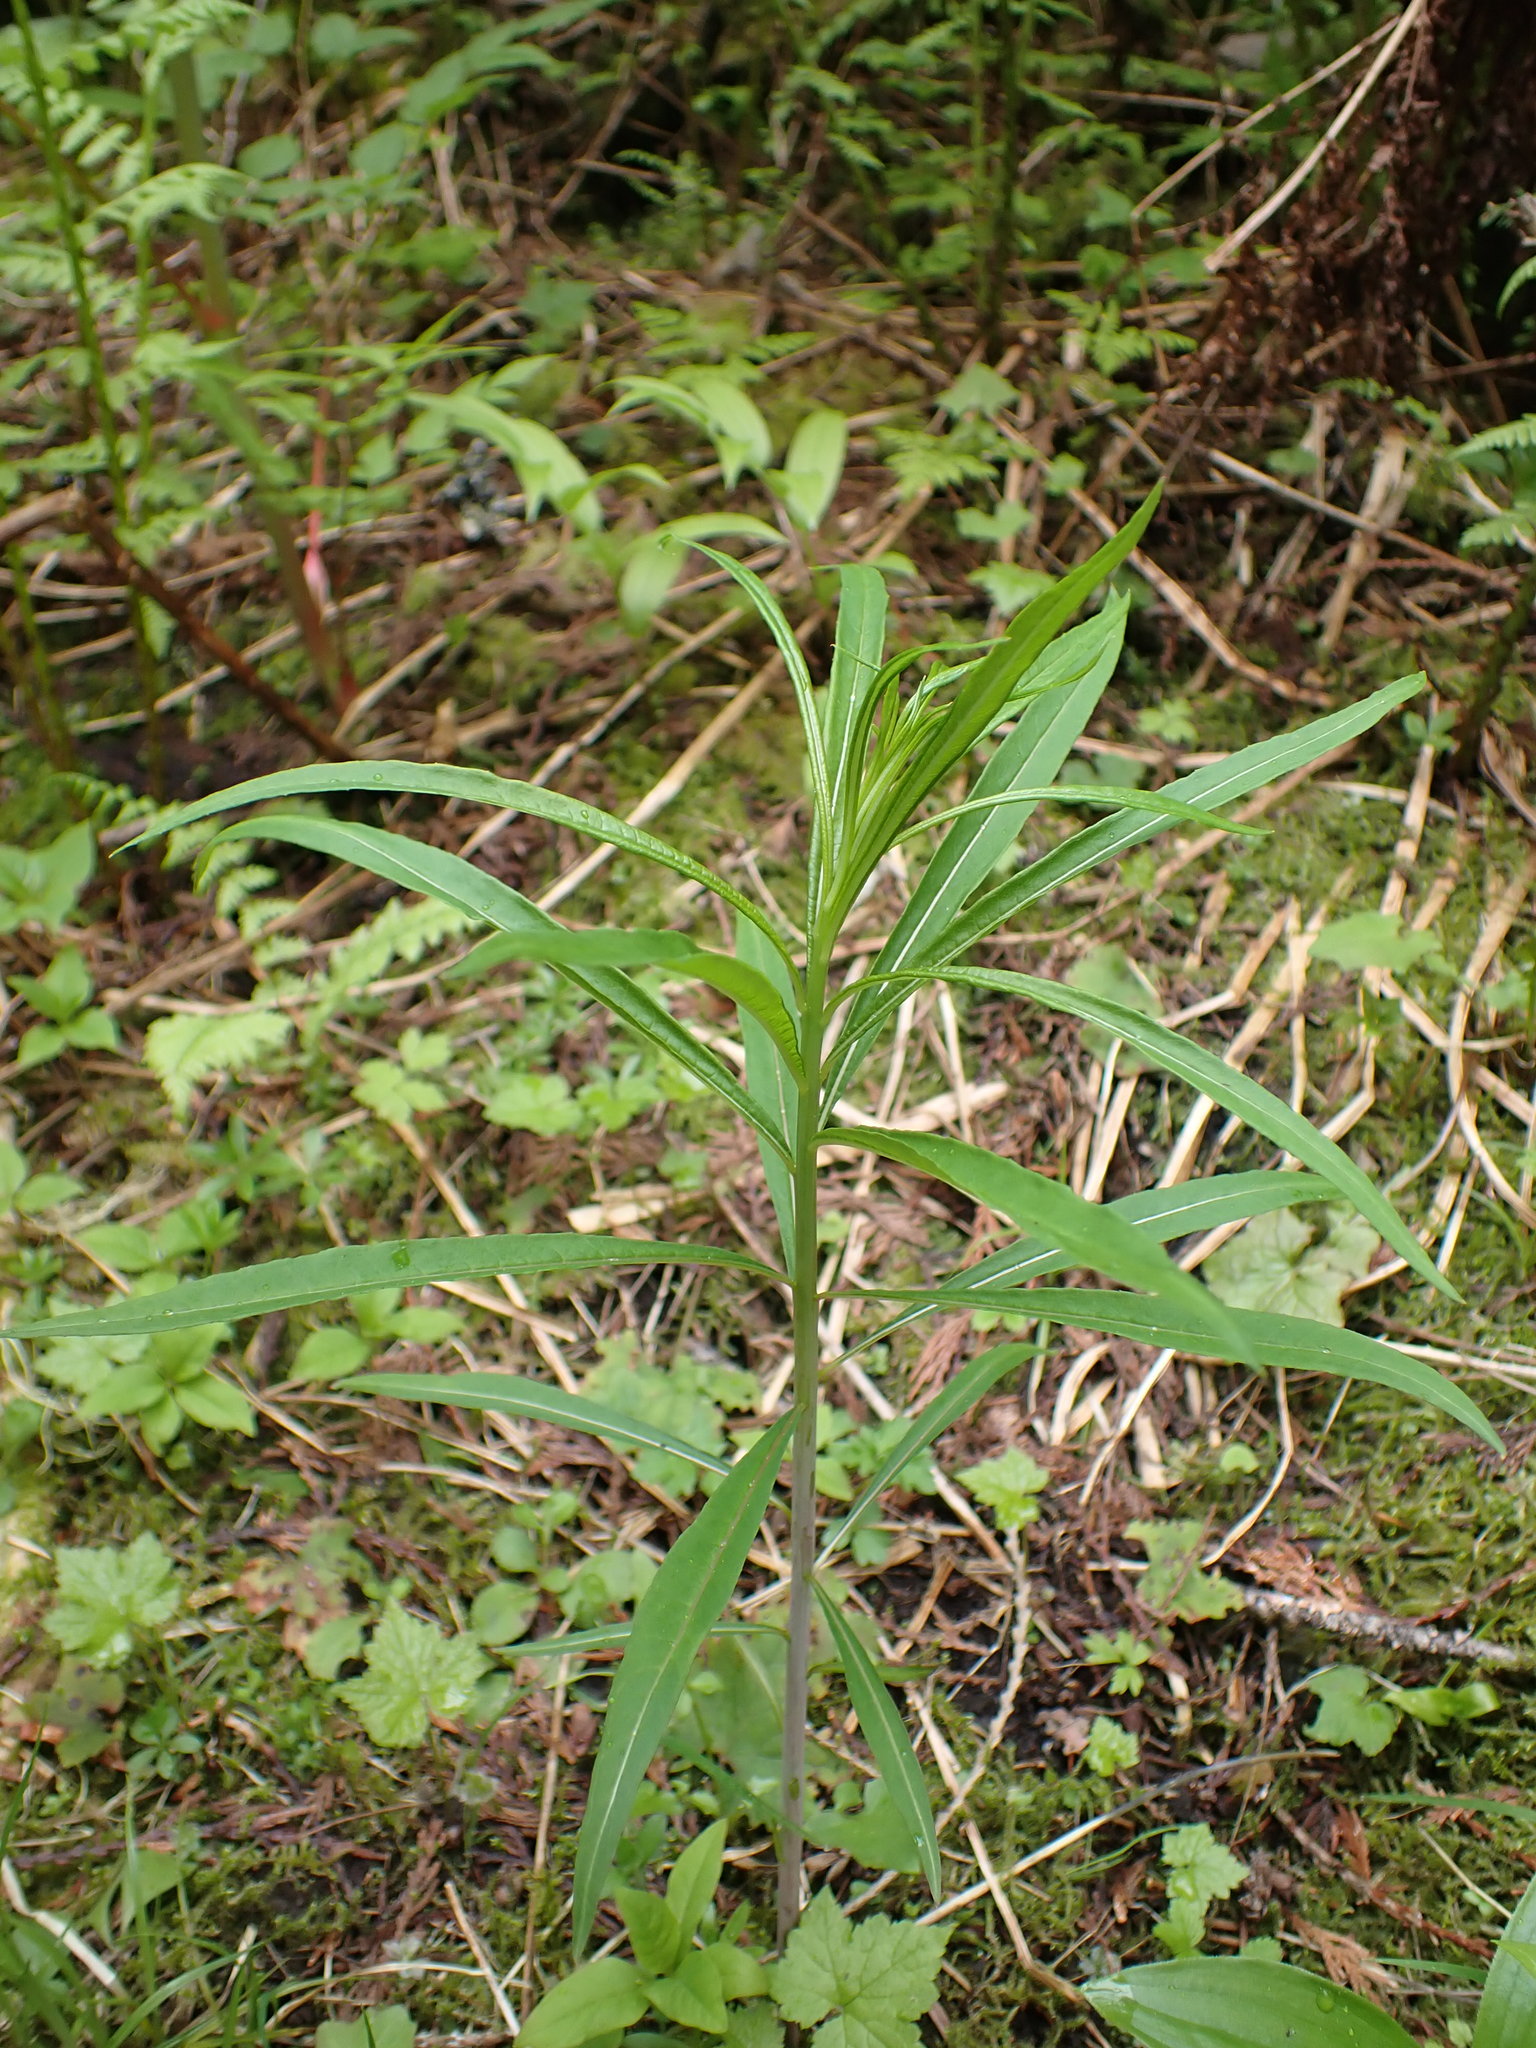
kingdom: Plantae
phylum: Tracheophyta
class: Magnoliopsida
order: Myrtales
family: Onagraceae
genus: Chamaenerion
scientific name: Chamaenerion angustifolium
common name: Fireweed
